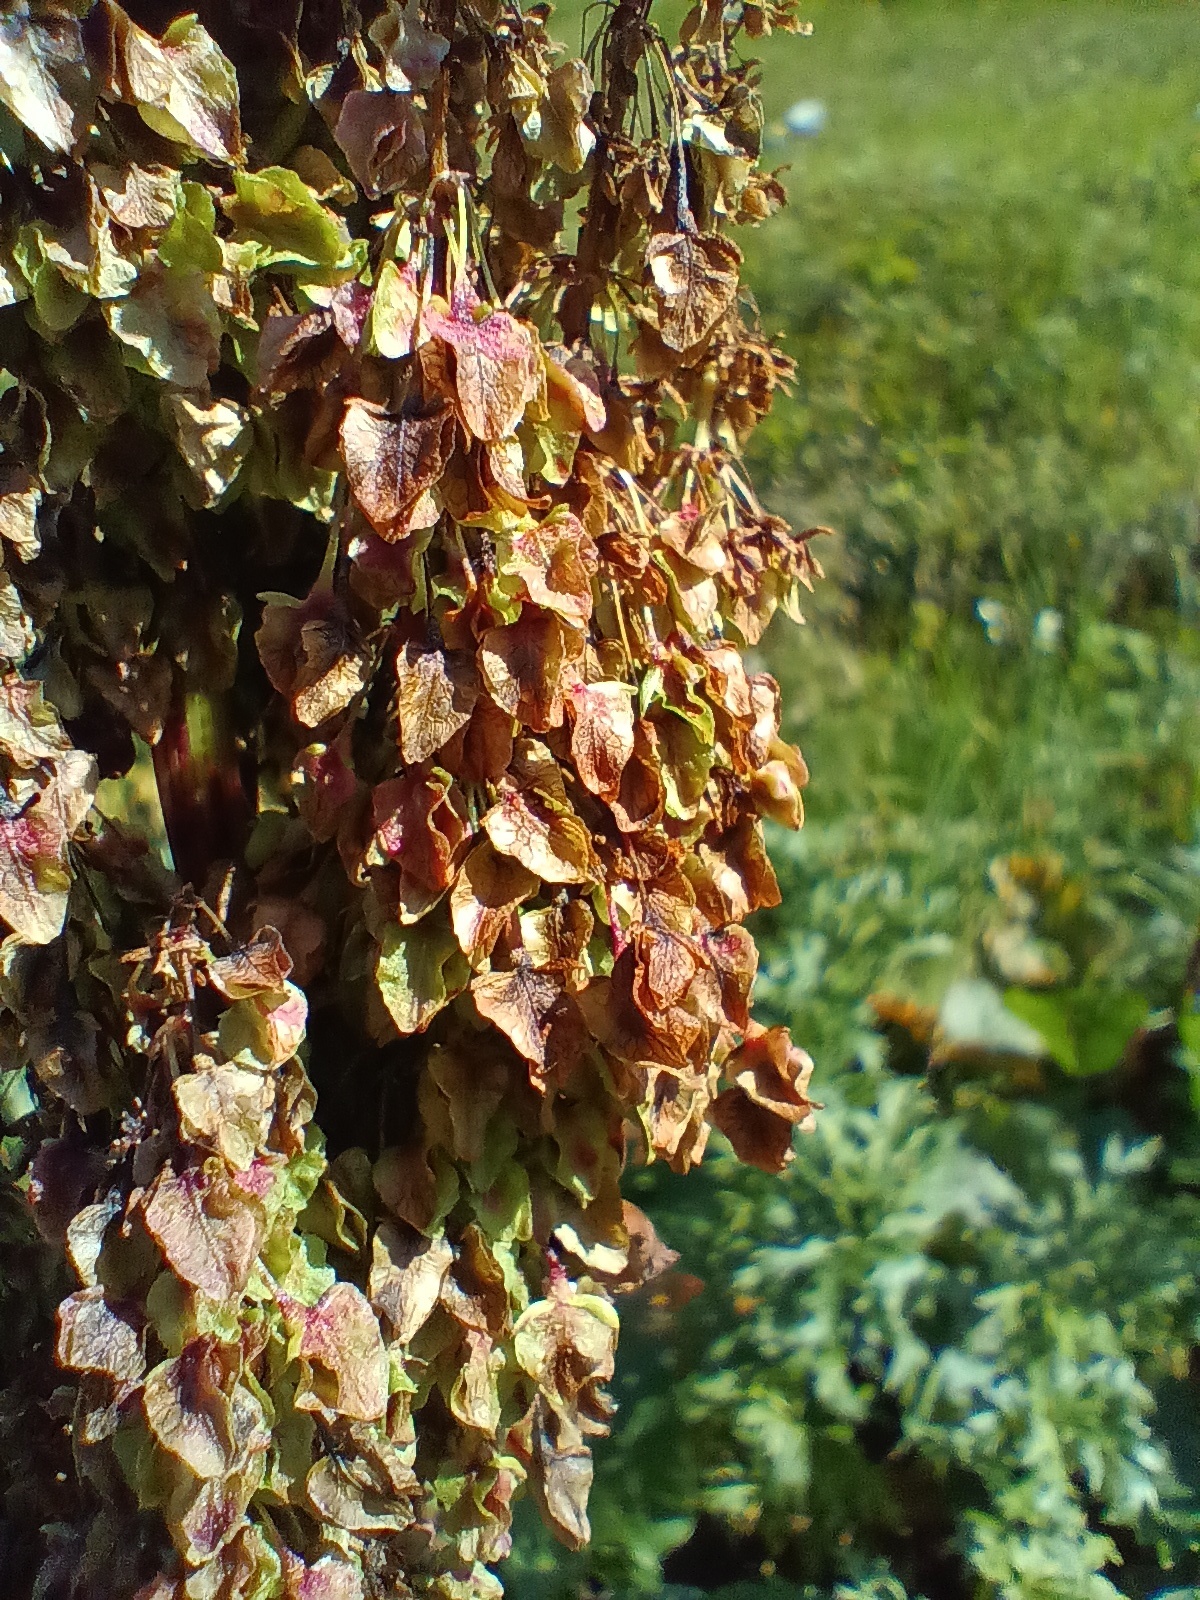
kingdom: Plantae
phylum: Tracheophyta
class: Magnoliopsida
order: Caryophyllales
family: Polygonaceae
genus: Rumex
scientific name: Rumex alpinus
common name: Alpine dock
